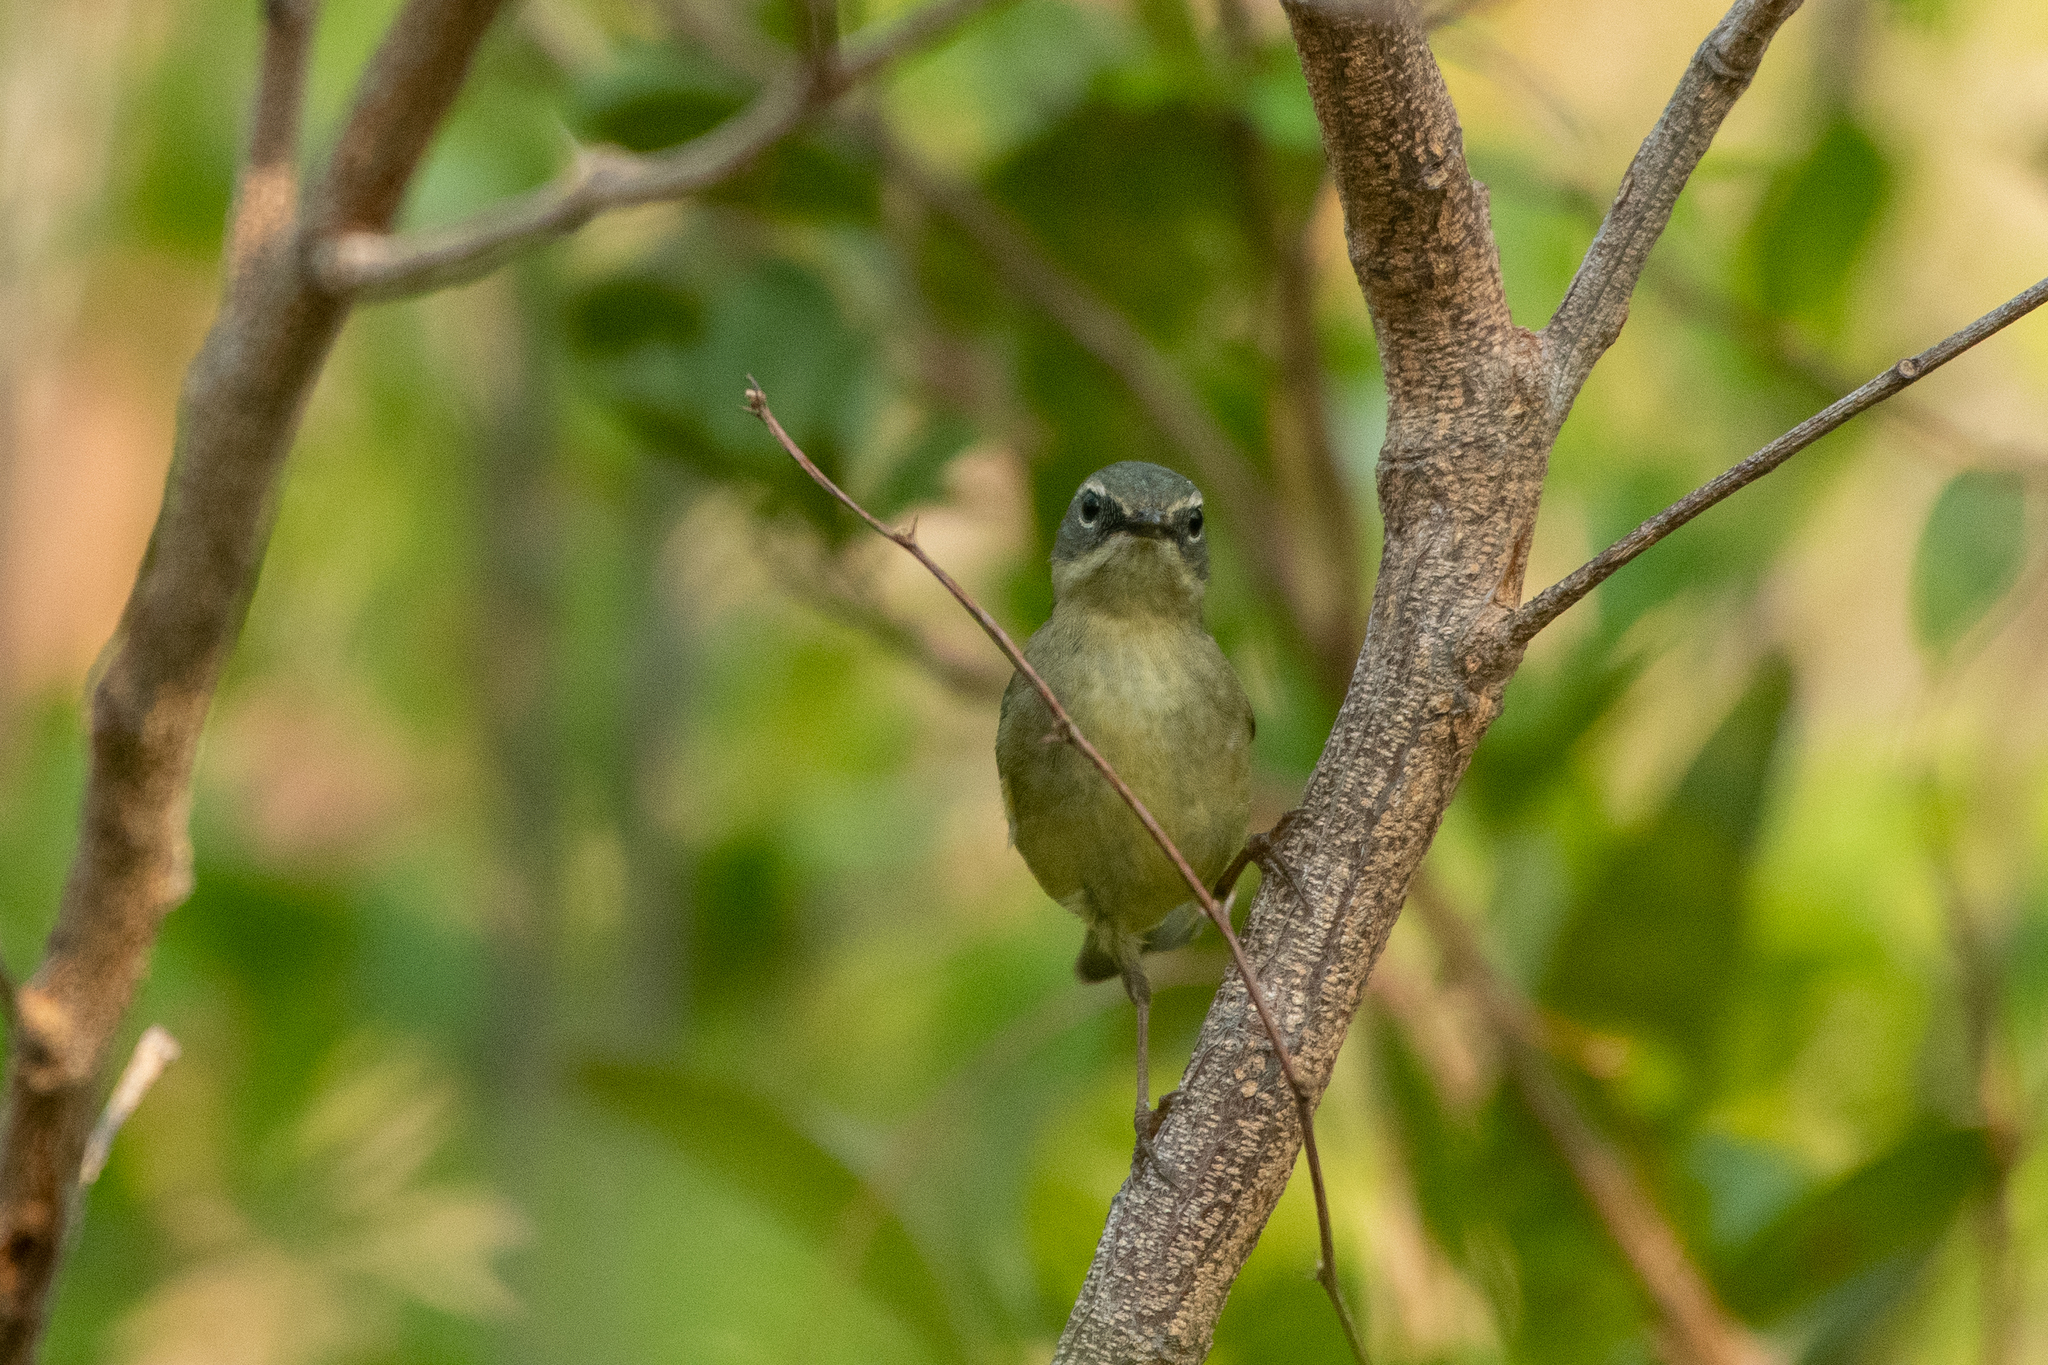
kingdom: Animalia
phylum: Chordata
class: Aves
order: Passeriformes
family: Parulidae
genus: Setophaga
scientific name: Setophaga caerulescens
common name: Black-throated blue warbler
